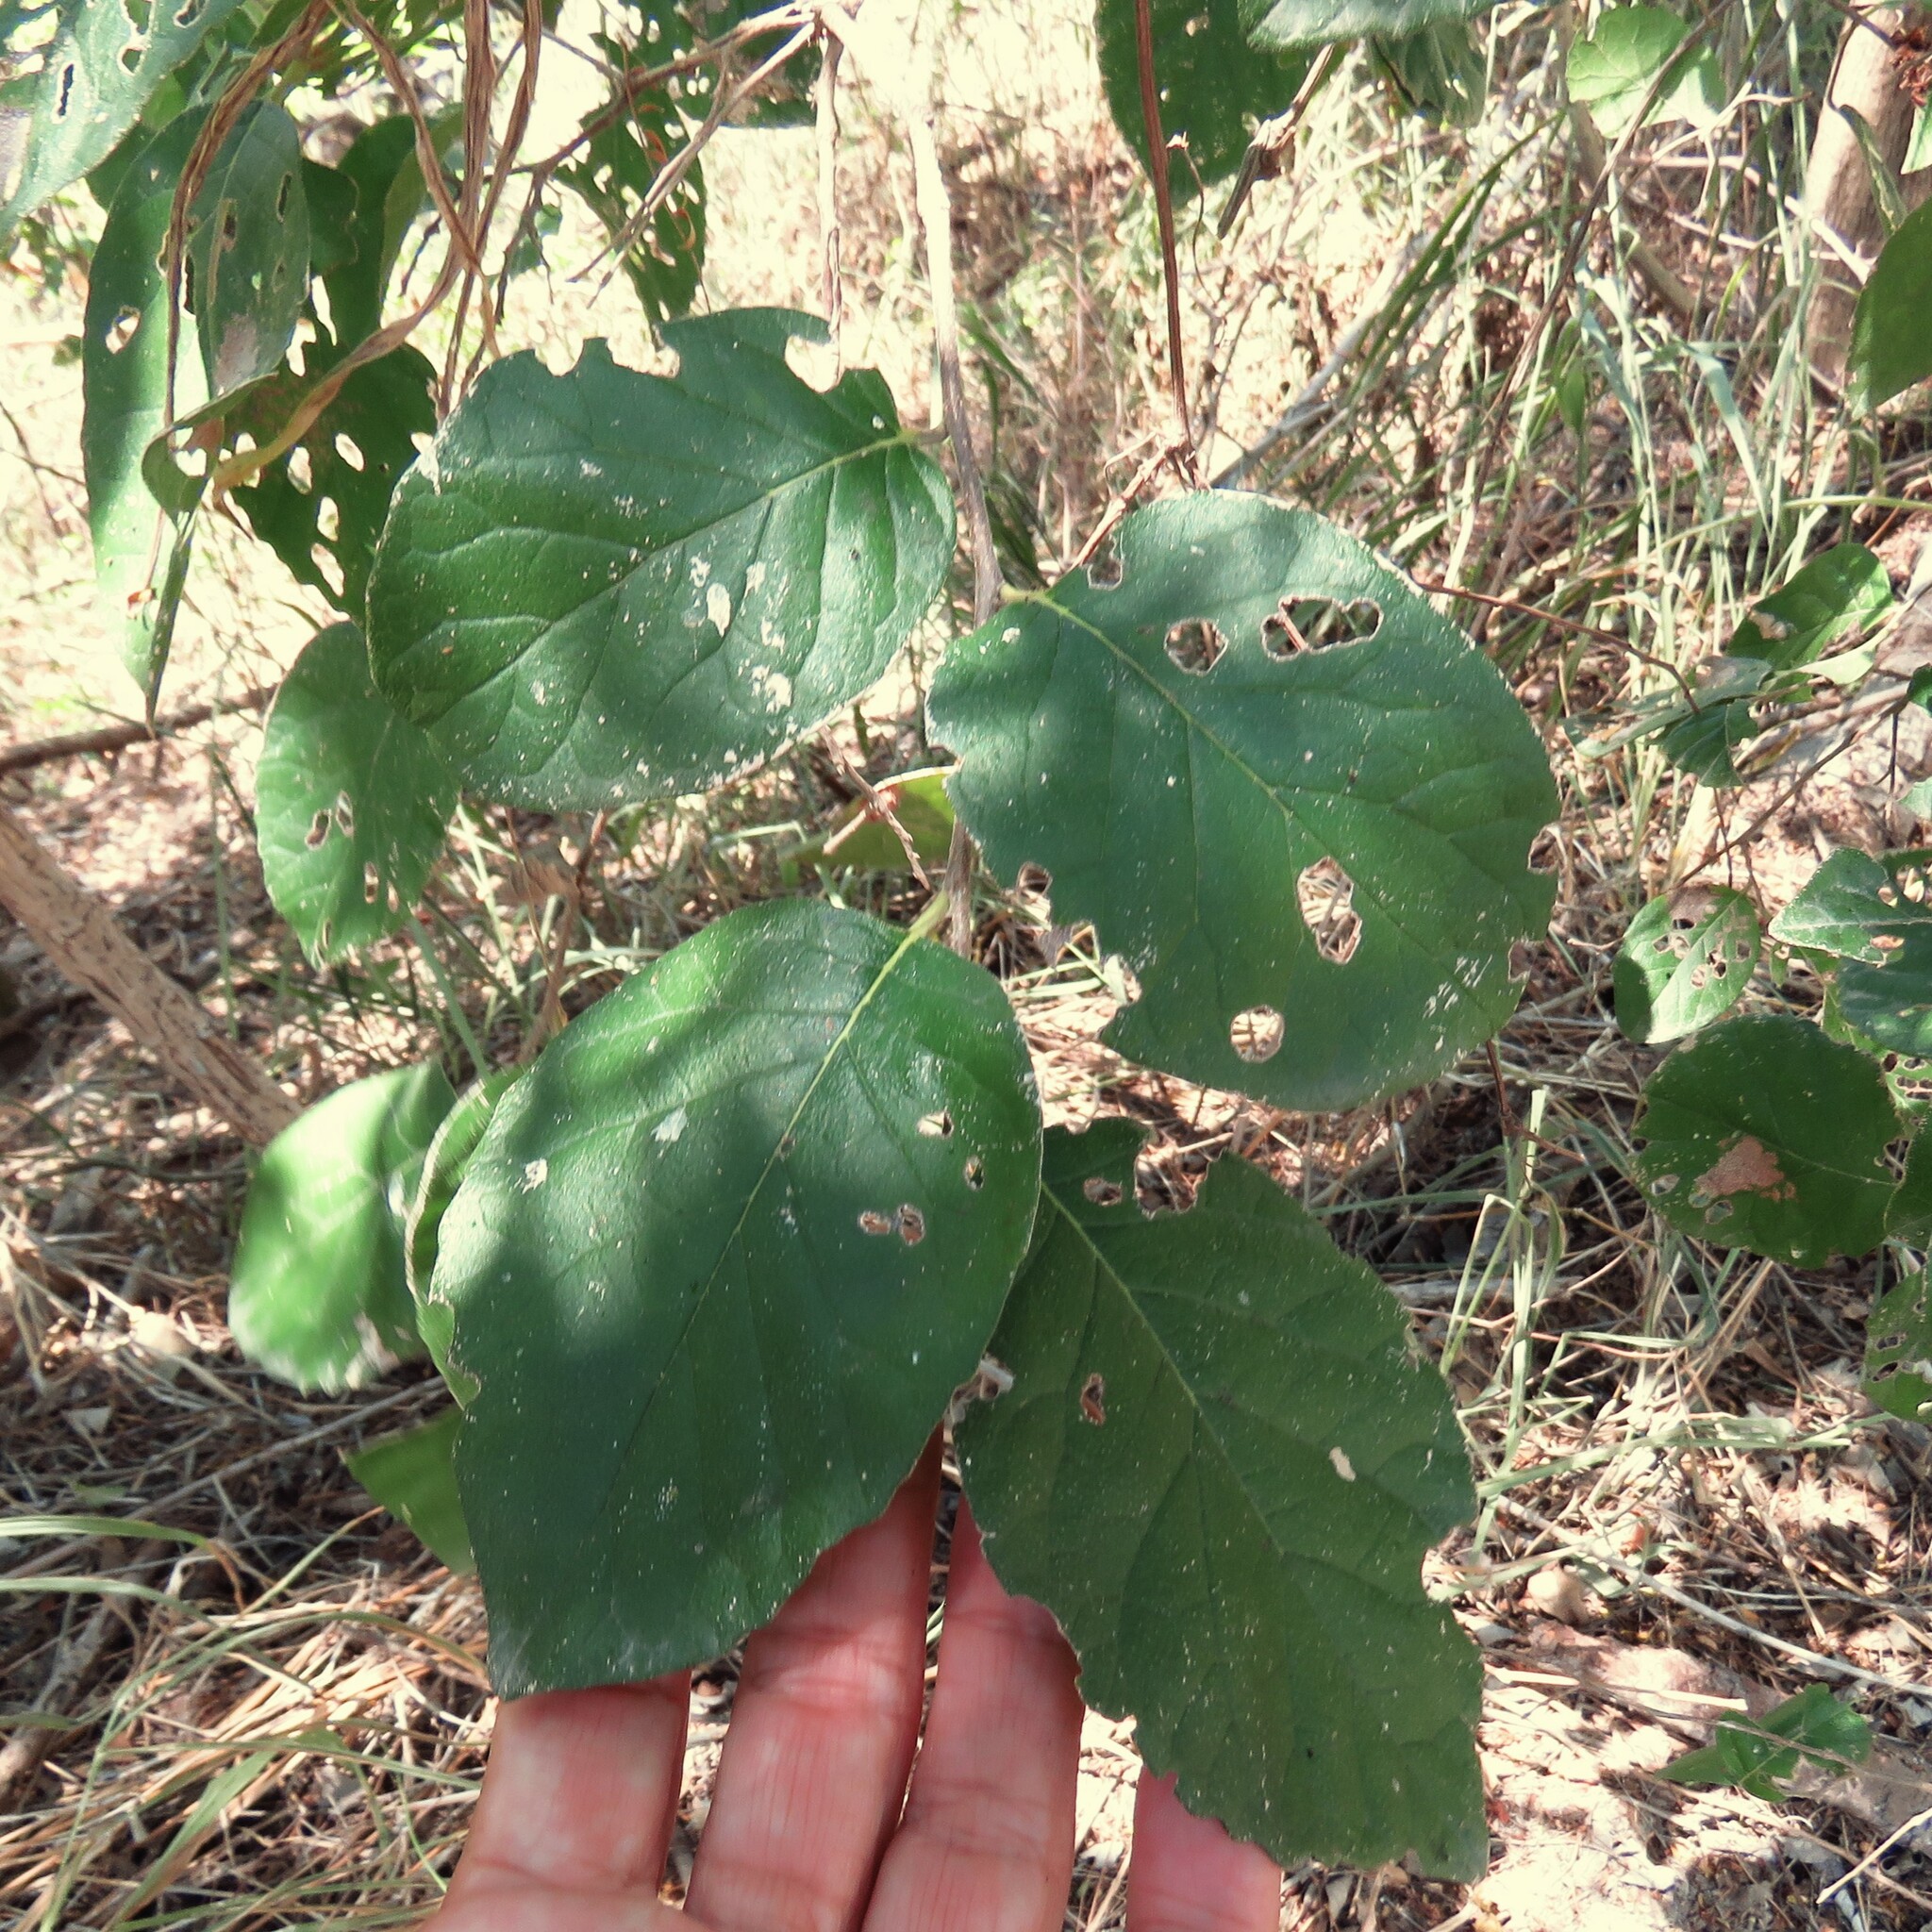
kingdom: Plantae
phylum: Tracheophyta
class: Magnoliopsida
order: Boraginales
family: Ehretiaceae
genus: Ehretia
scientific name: Ehretia anacua
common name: Sugarberry
